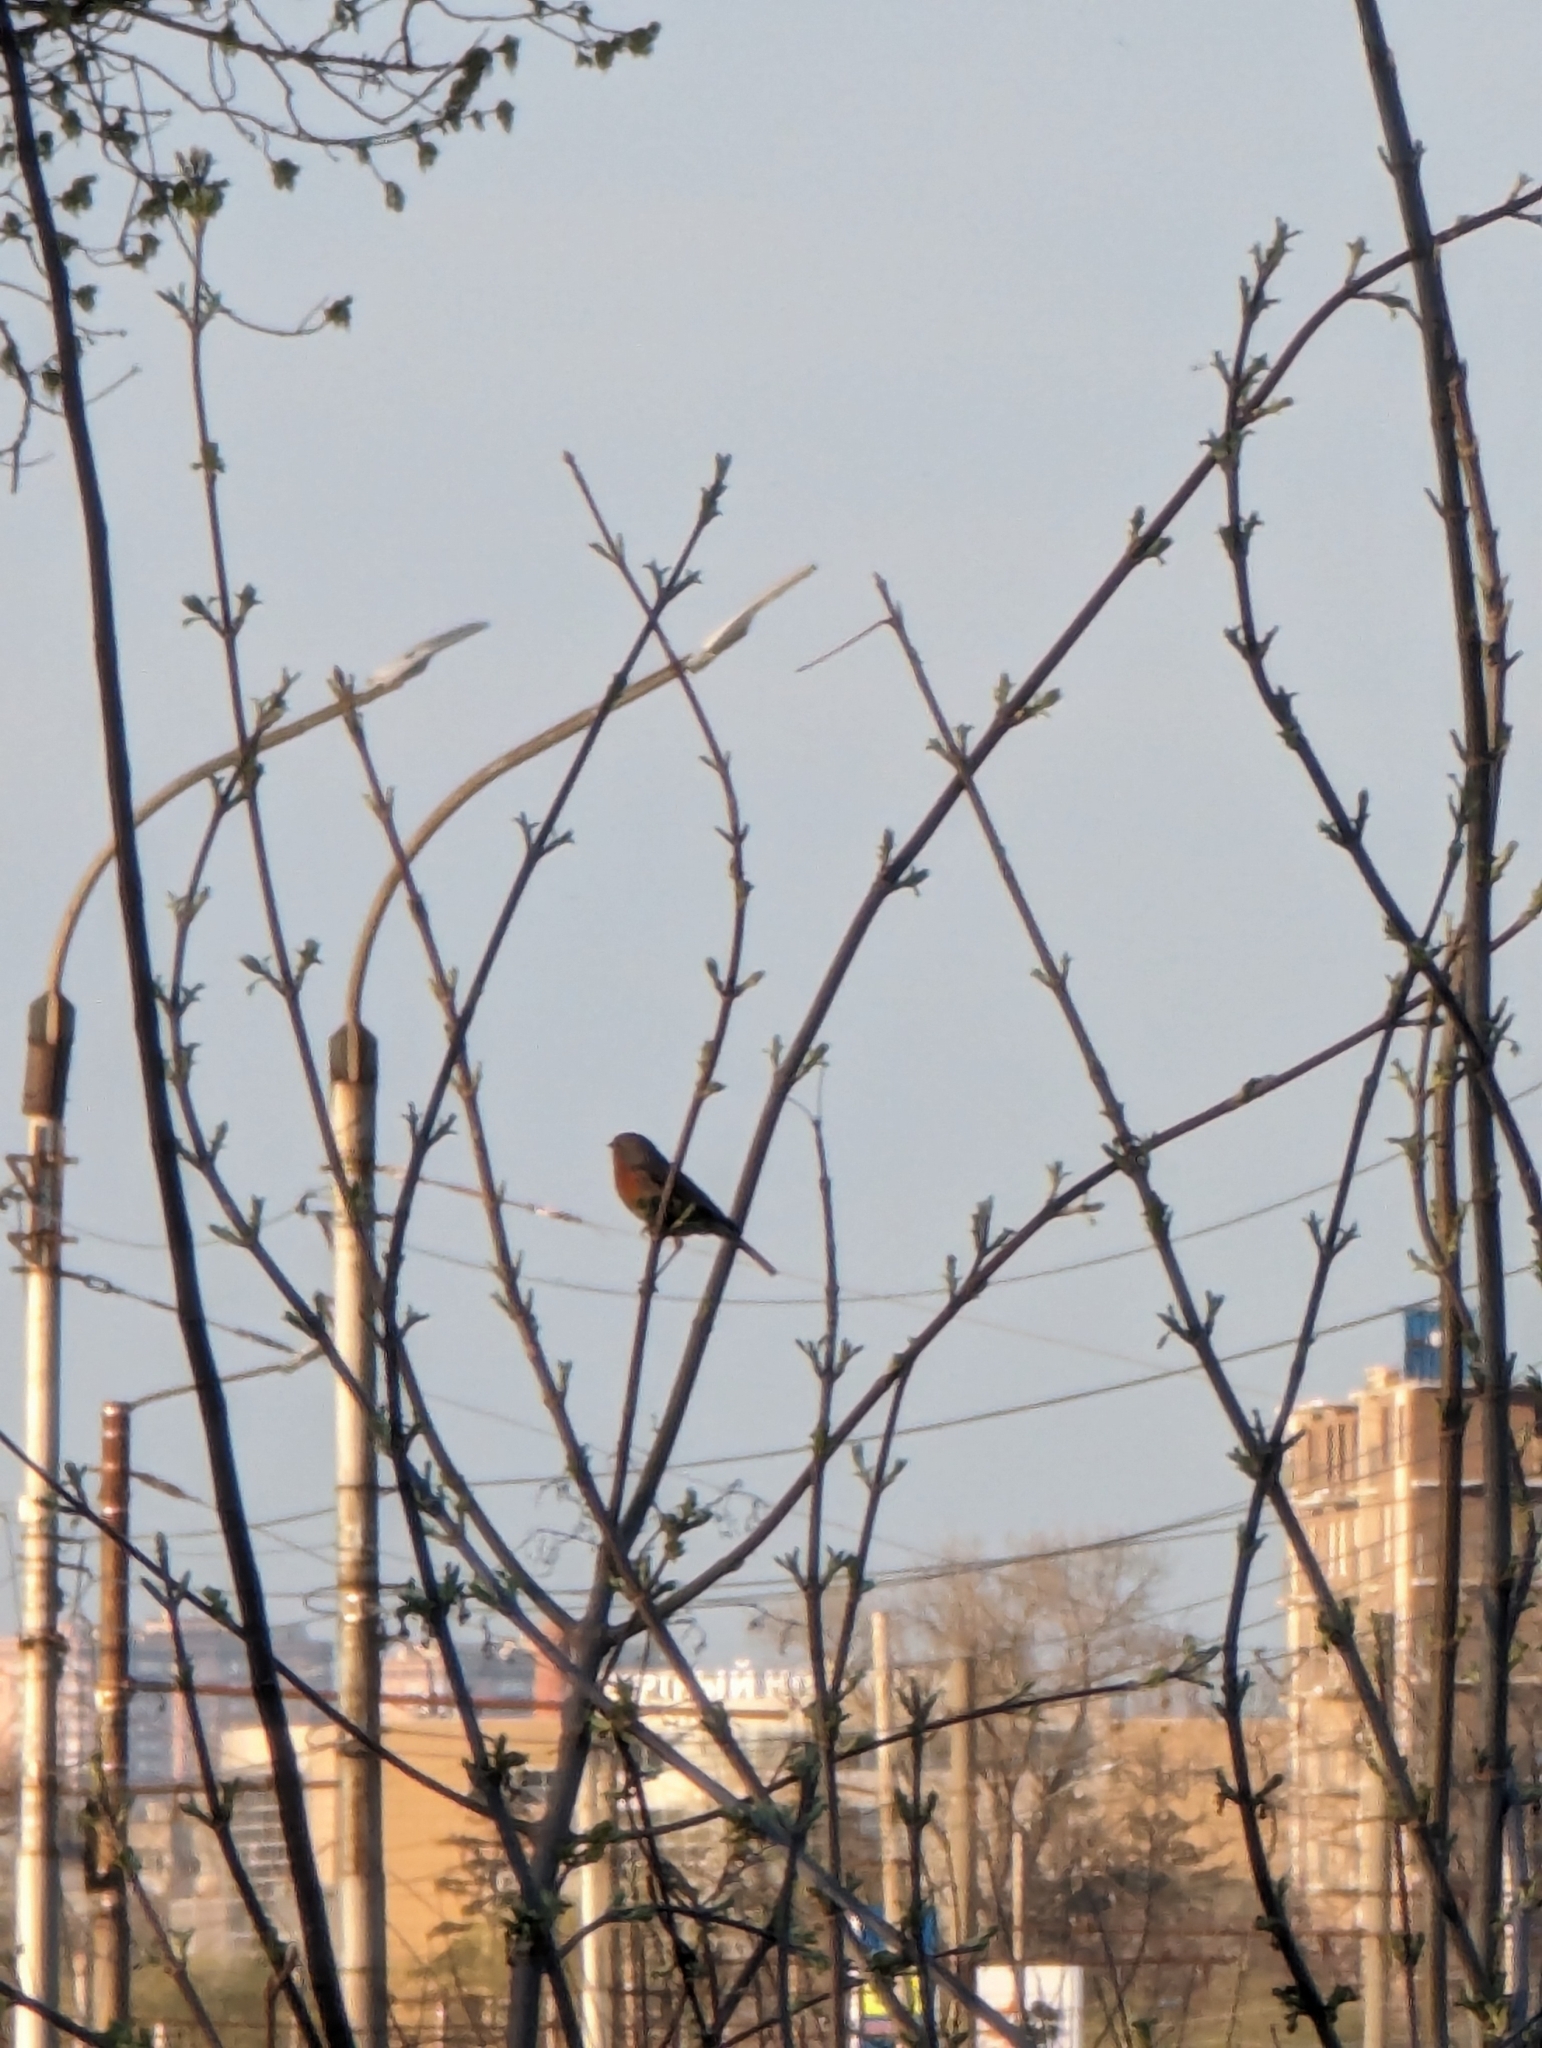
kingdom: Animalia
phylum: Chordata
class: Aves
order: Passeriformes
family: Muscicapidae
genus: Erithacus
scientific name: Erithacus rubecula
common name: European robin
